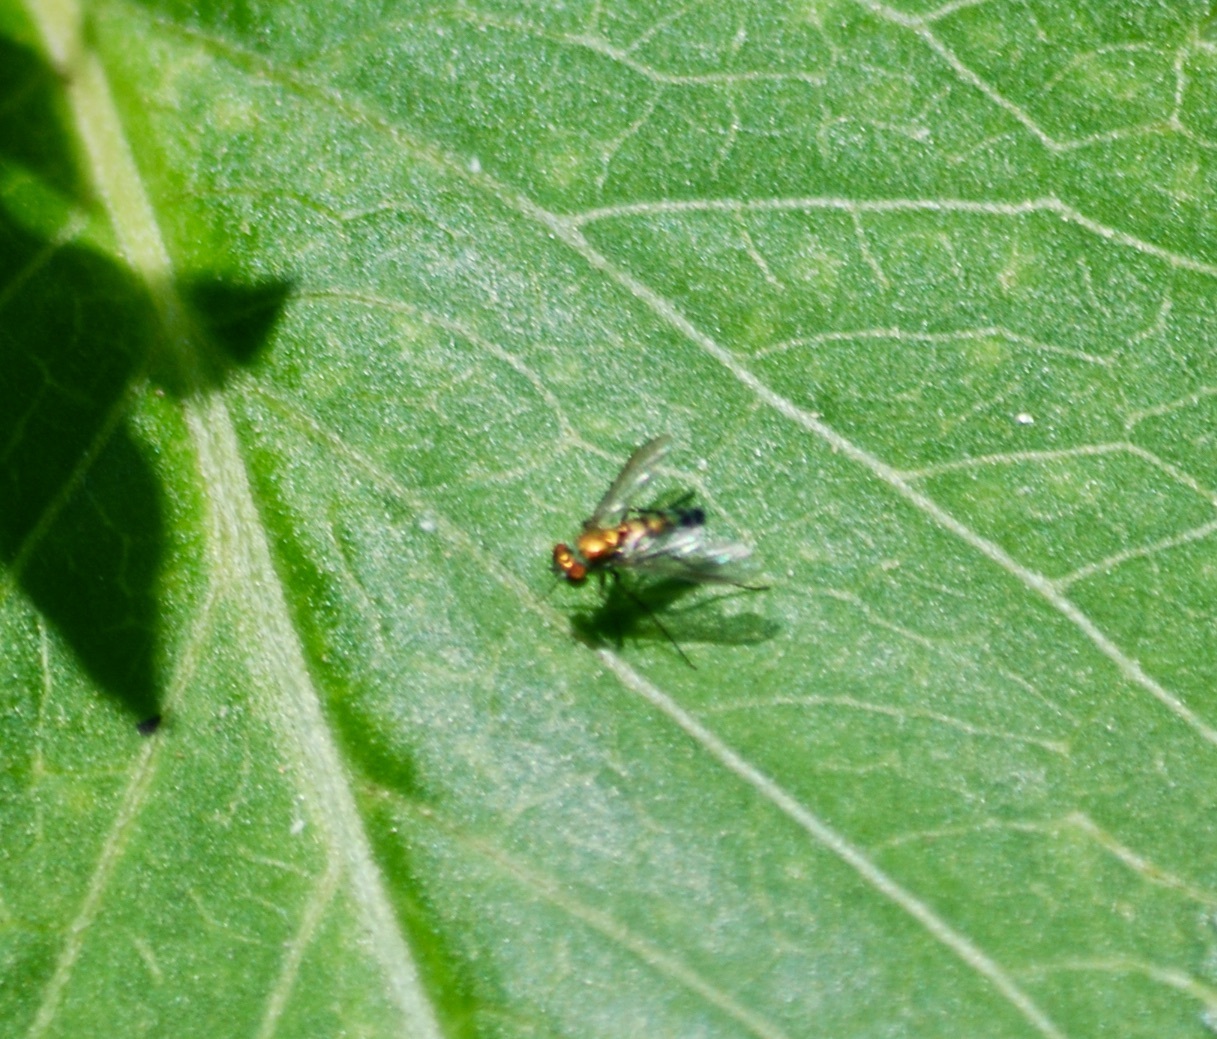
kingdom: Animalia
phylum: Arthropoda
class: Insecta
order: Diptera
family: Dolichopodidae
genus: Condylostylus
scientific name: Condylostylus longicornis
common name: Long-legged fly
